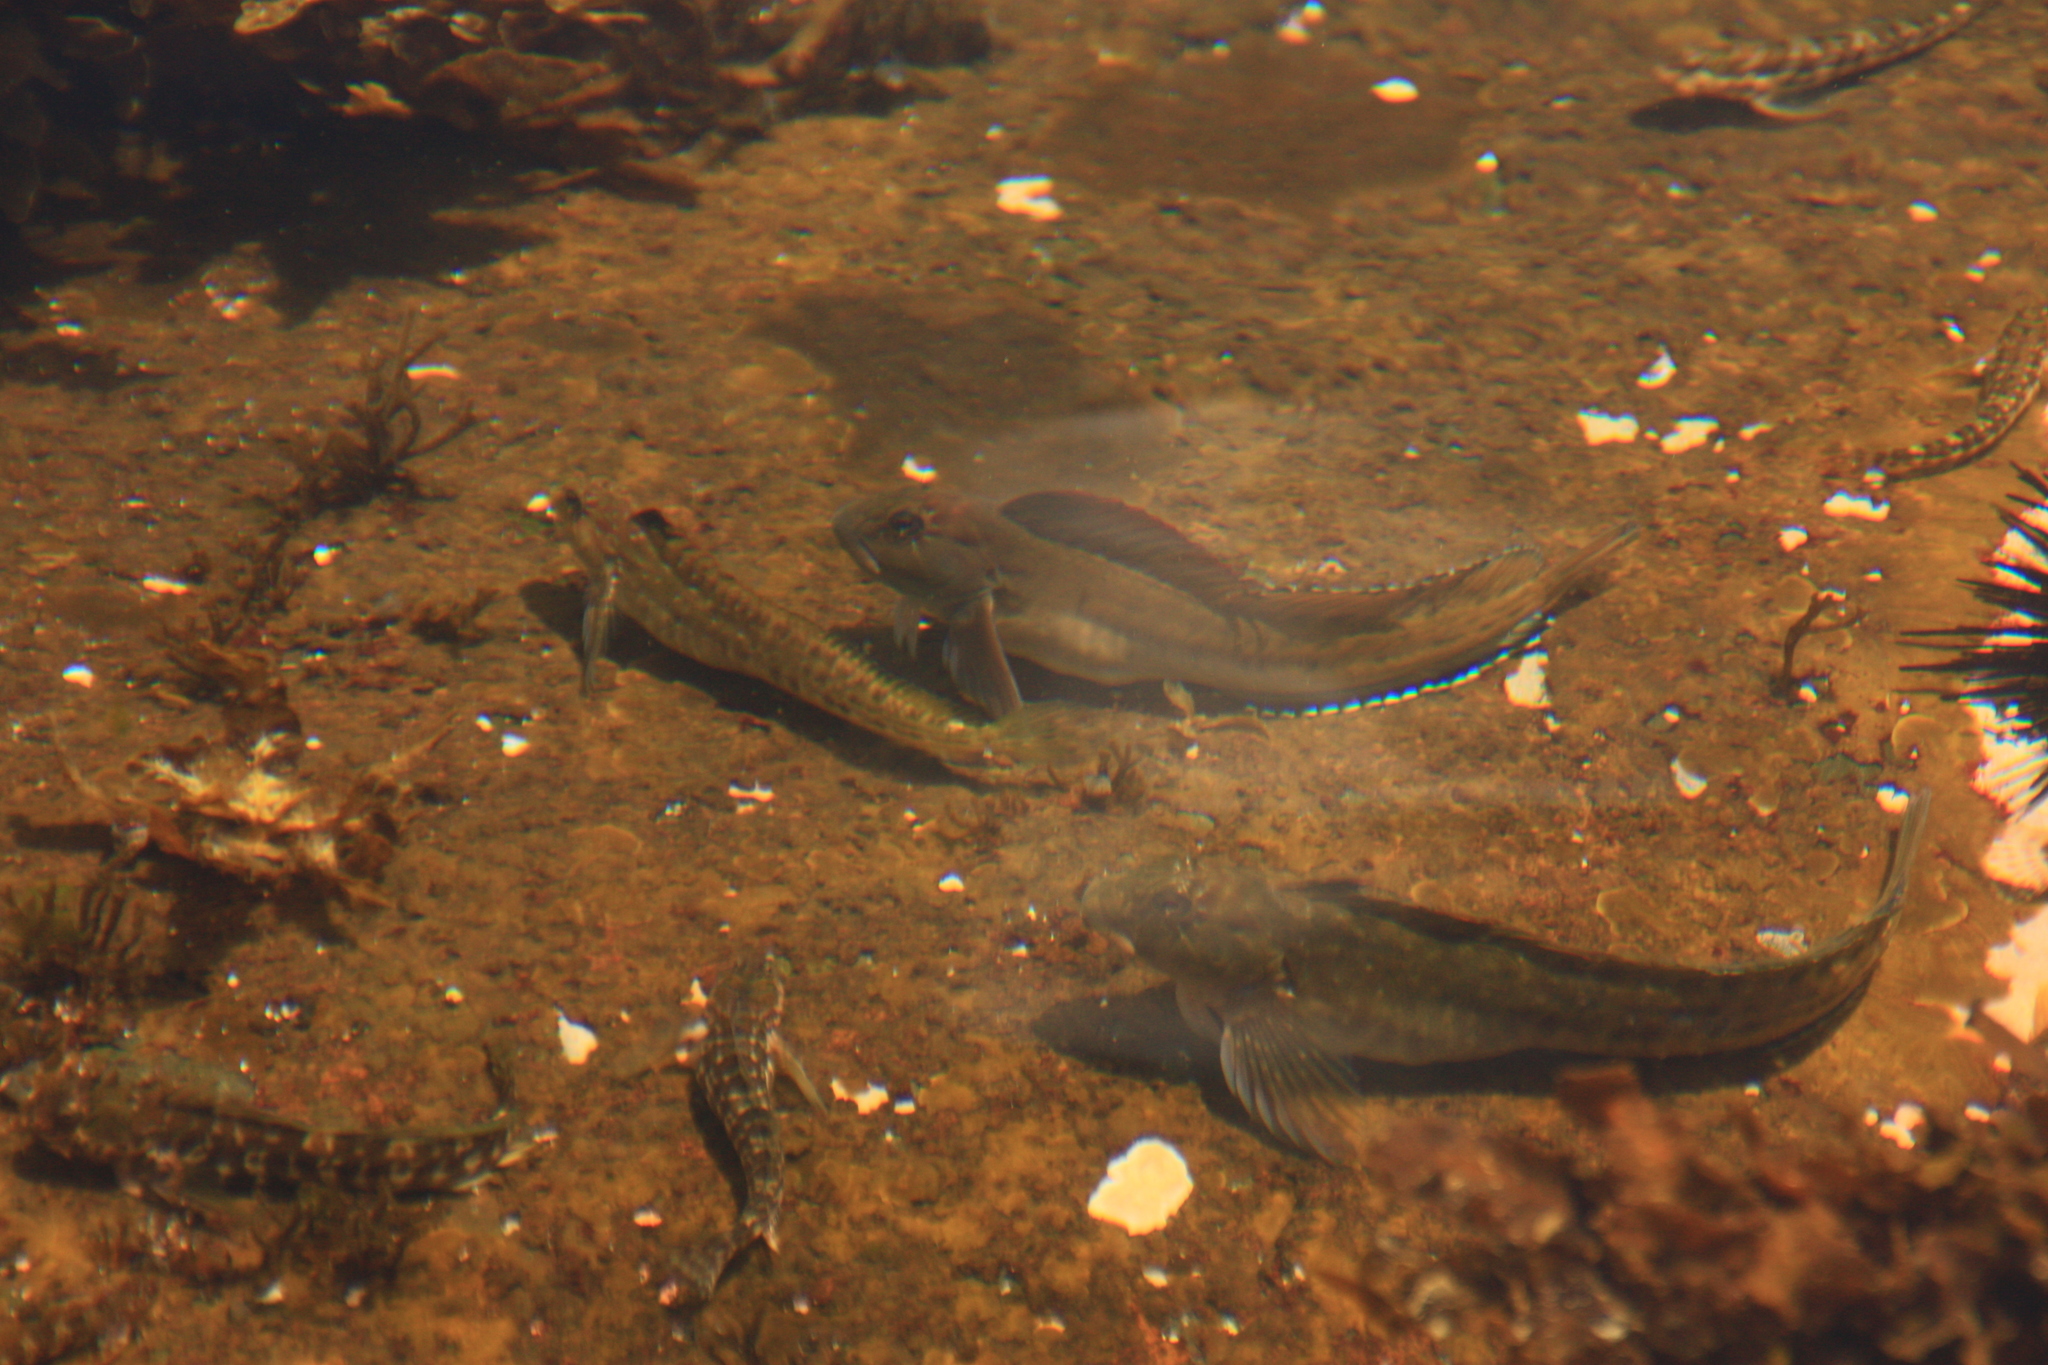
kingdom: Animalia
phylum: Chordata
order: Perciformes
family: Blenniidae
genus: Parablennius
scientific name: Parablennius parvicornis
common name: Rock-pool blenny
